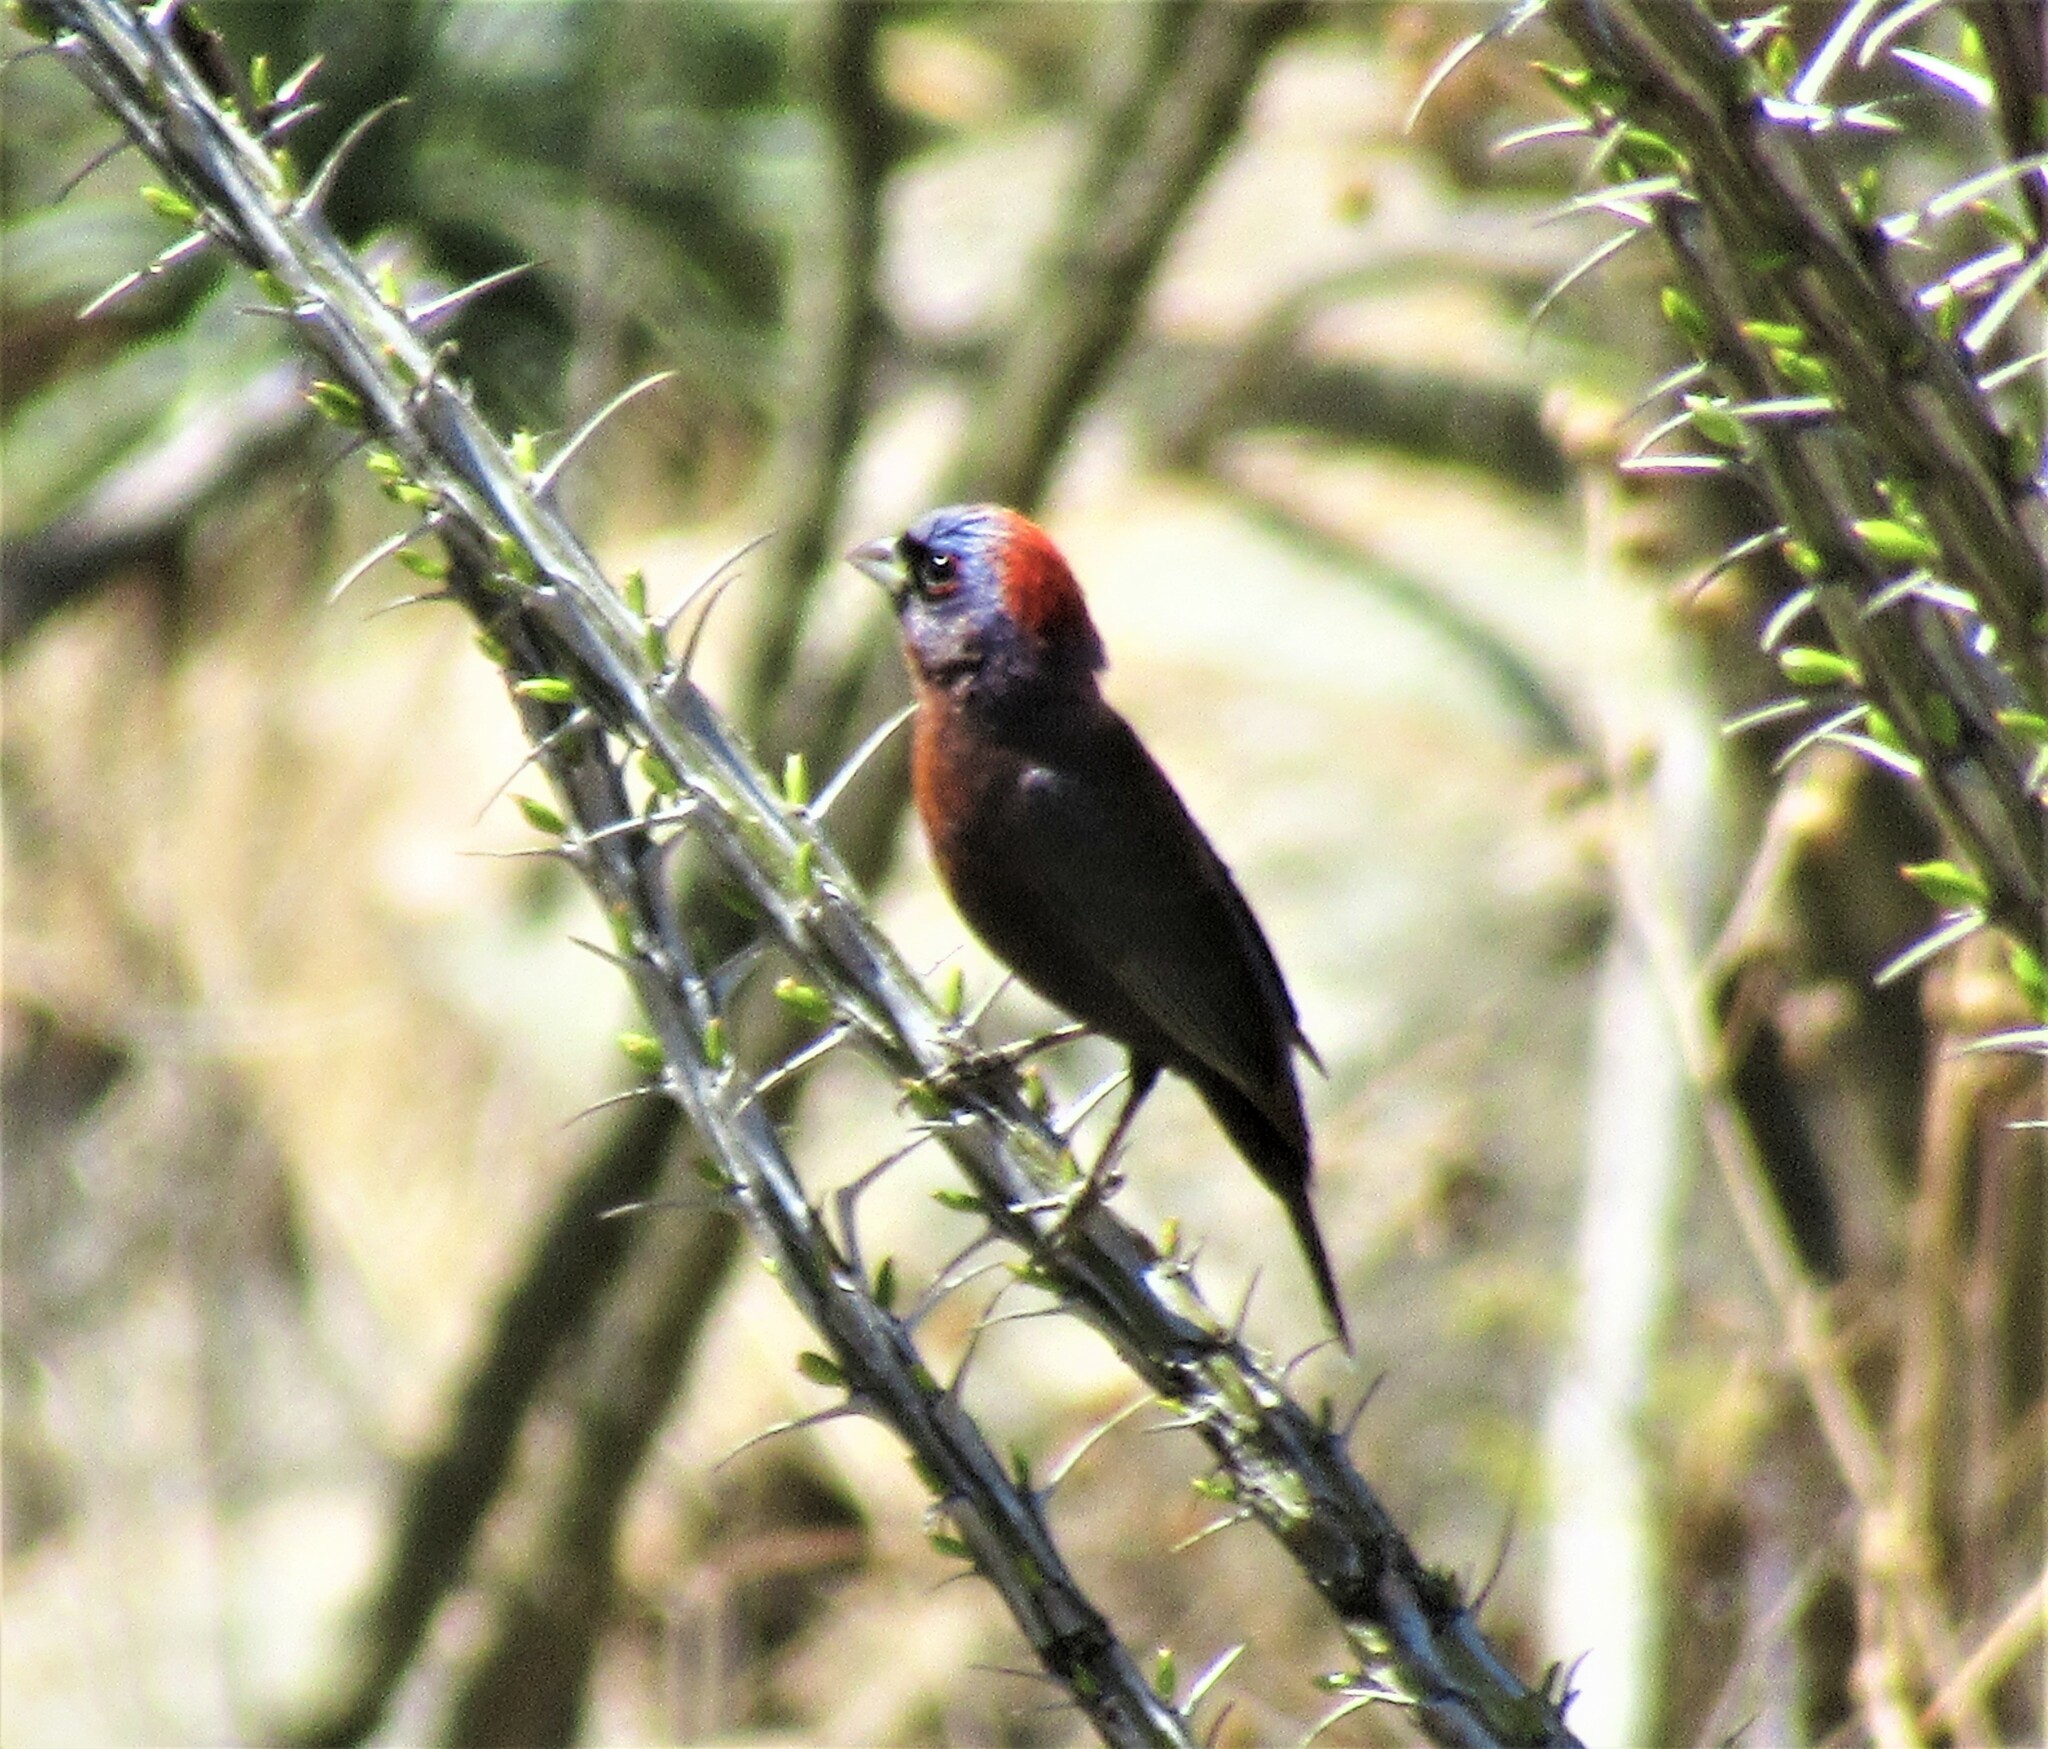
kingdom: Animalia
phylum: Chordata
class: Aves
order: Passeriformes
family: Cardinalidae
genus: Passerina
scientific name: Passerina versicolor
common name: Varied bunting
